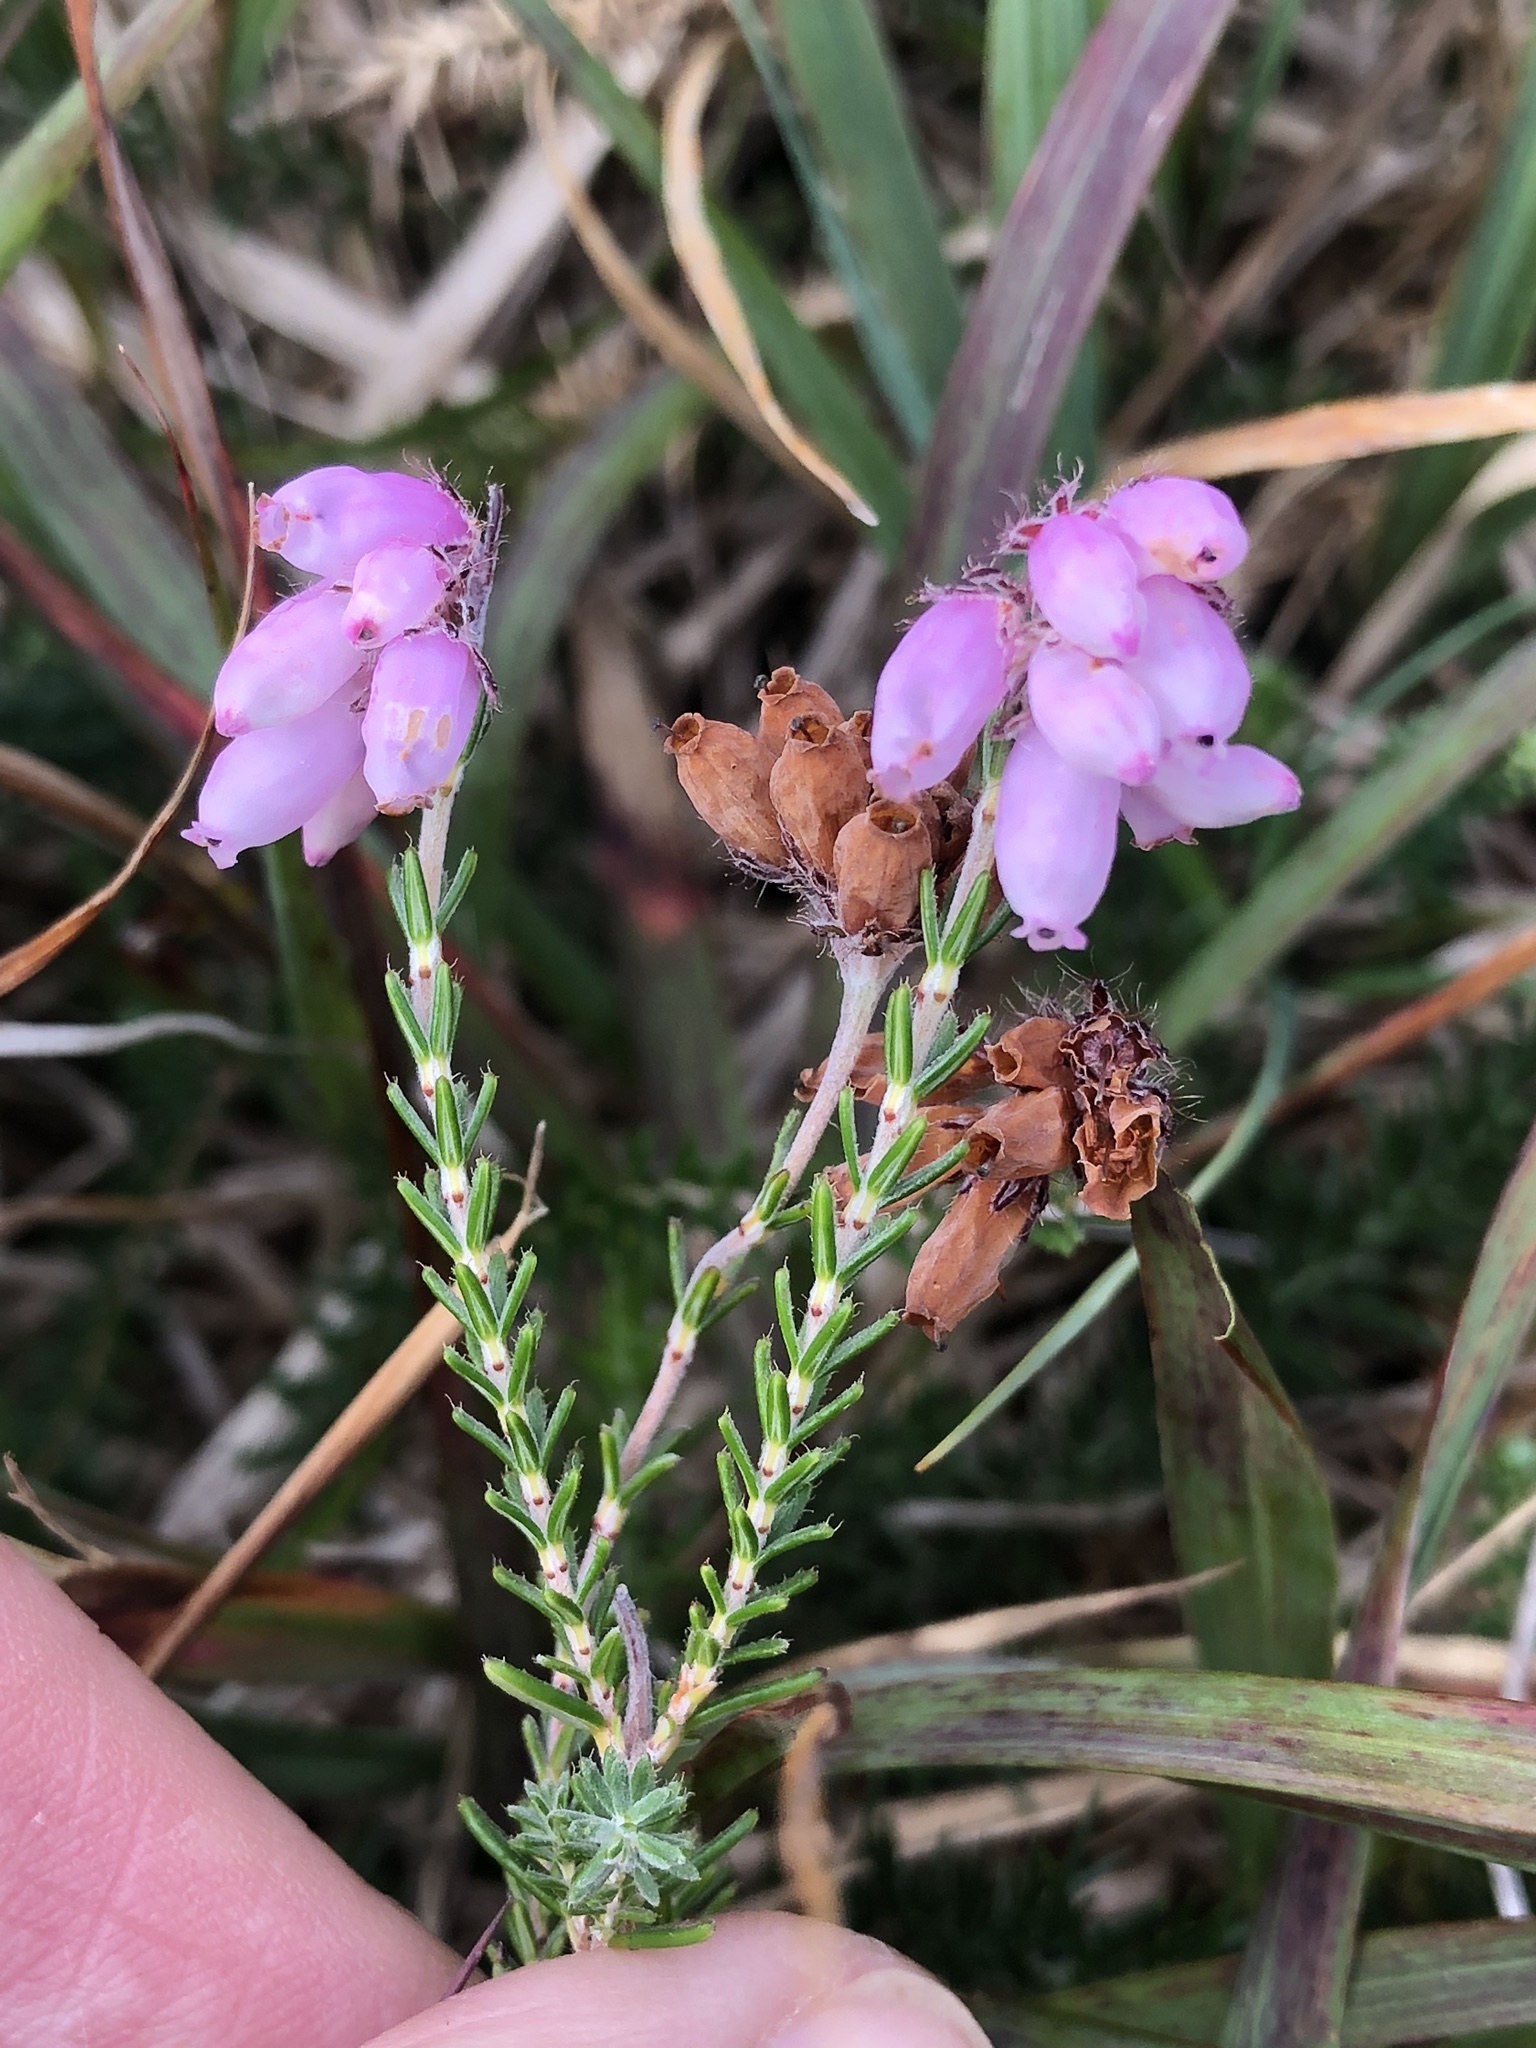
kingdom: Plantae
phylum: Tracheophyta
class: Magnoliopsida
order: Ericales
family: Ericaceae
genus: Erica
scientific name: Erica tetralix
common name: Cross-leaved heath
